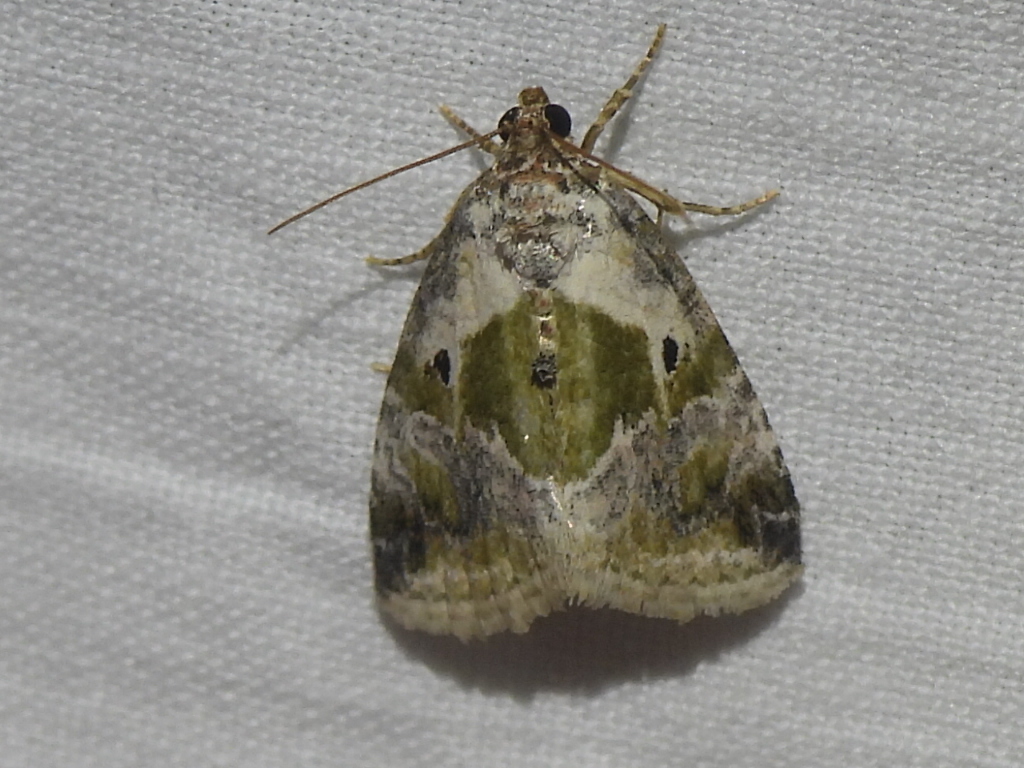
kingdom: Animalia
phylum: Arthropoda
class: Insecta
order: Lepidoptera
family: Noctuidae
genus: Maliattha
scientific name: Maliattha synochitis
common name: Black-dotted glyph
